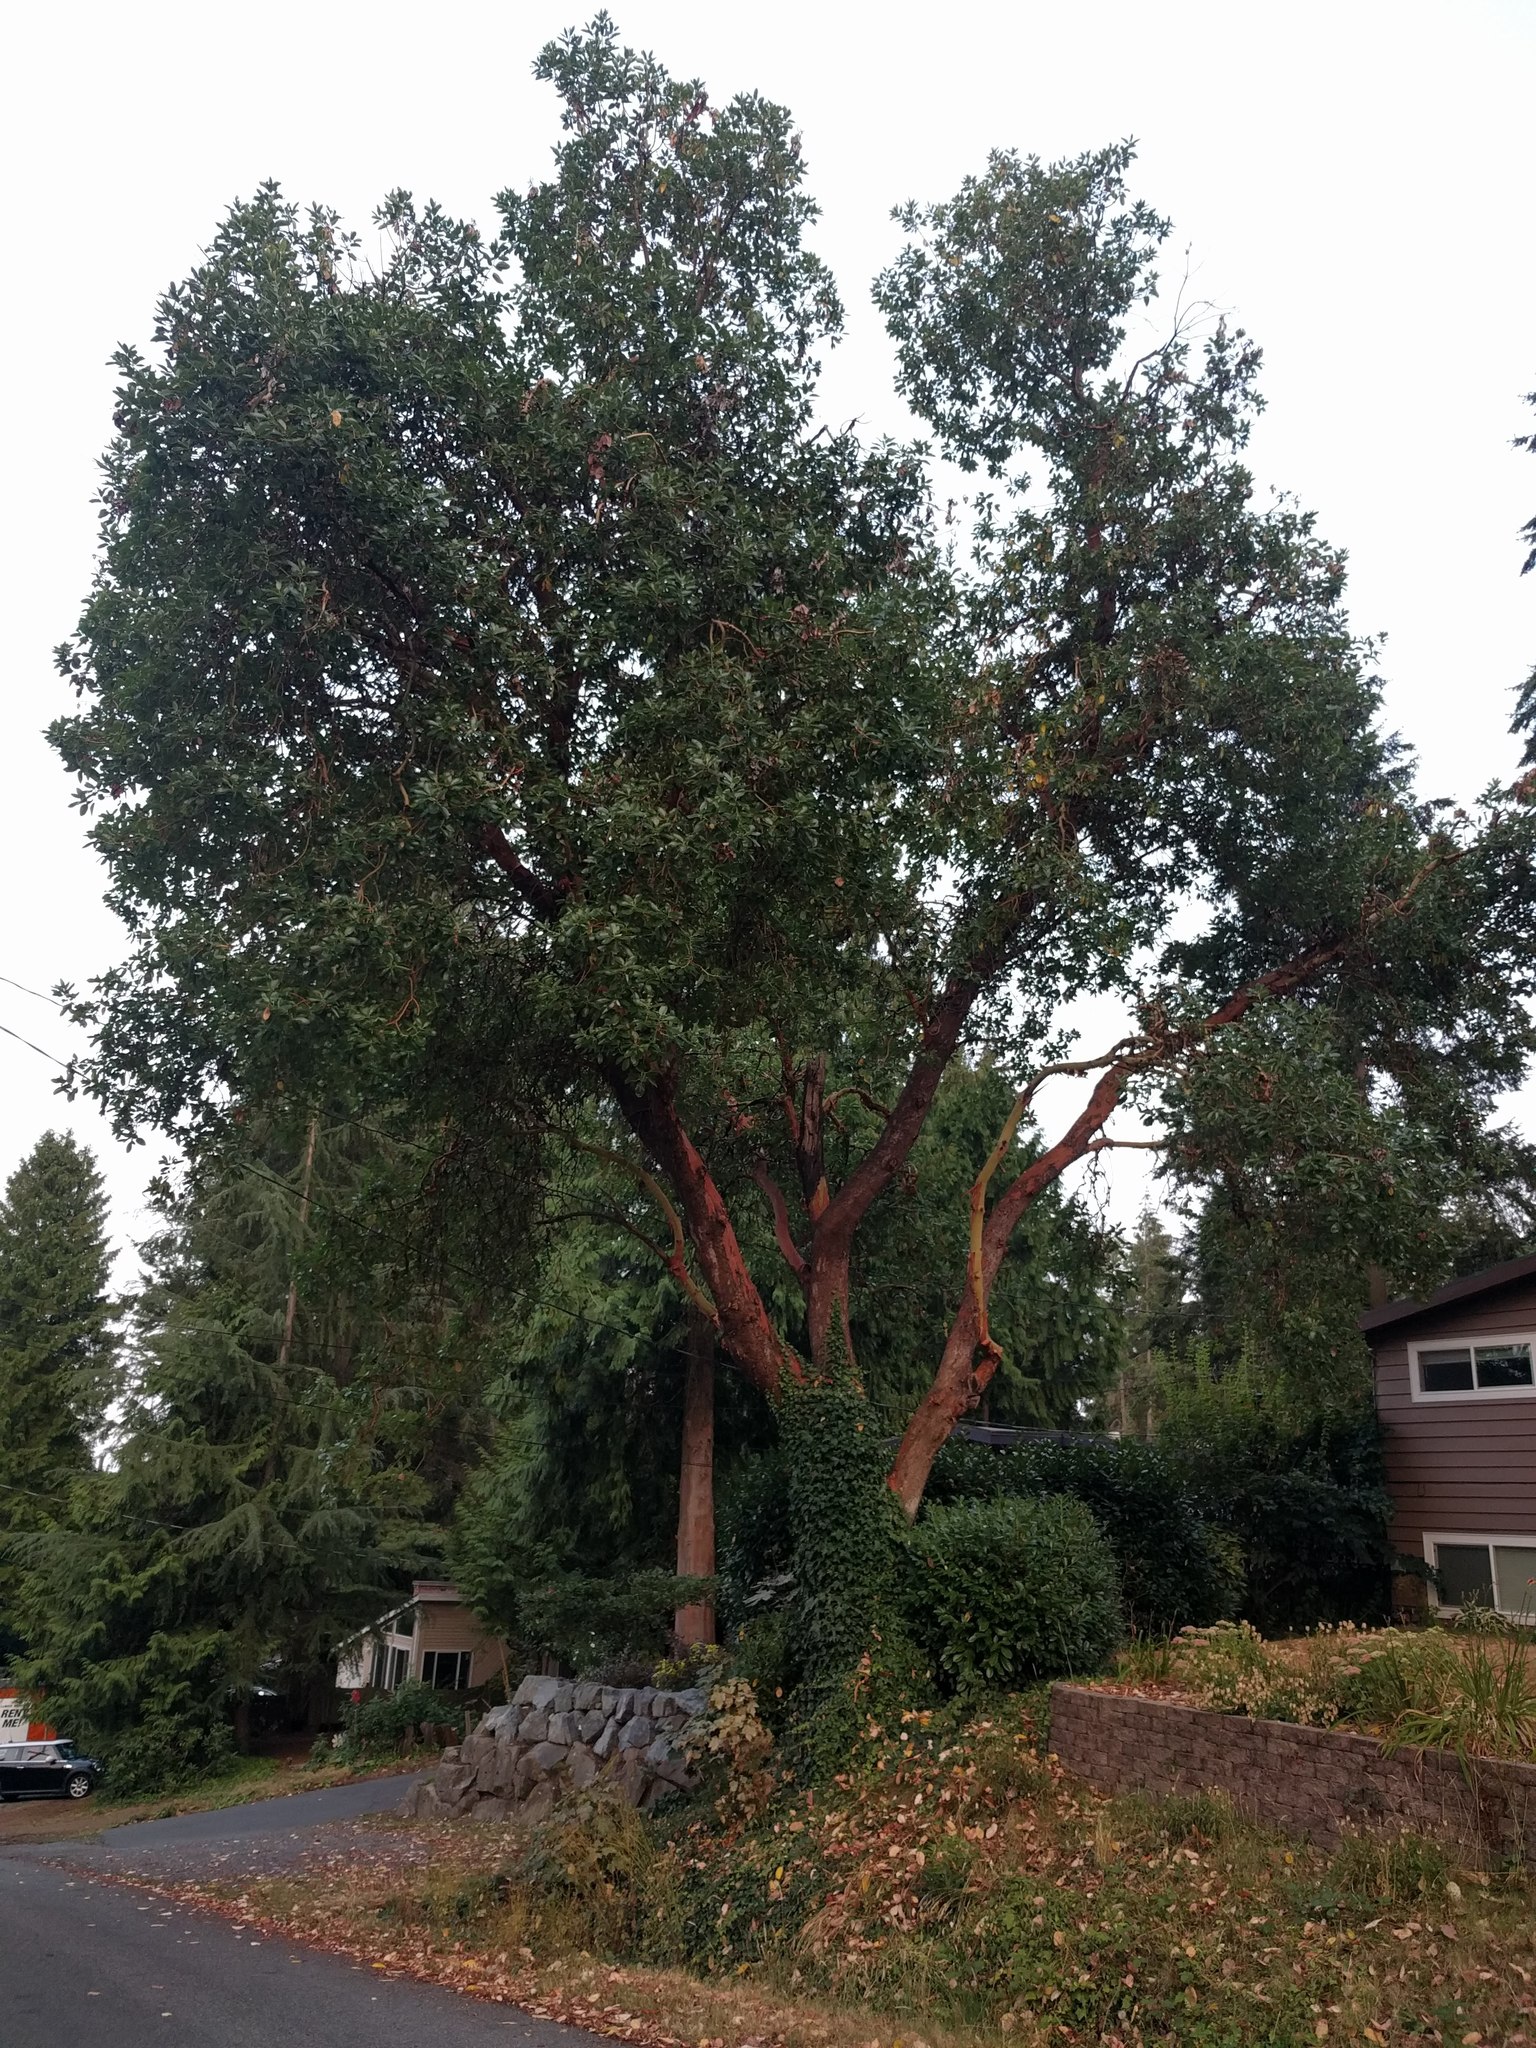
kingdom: Plantae
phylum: Tracheophyta
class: Magnoliopsida
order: Ericales
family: Ericaceae
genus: Arbutus
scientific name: Arbutus menziesii
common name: Pacific madrone
